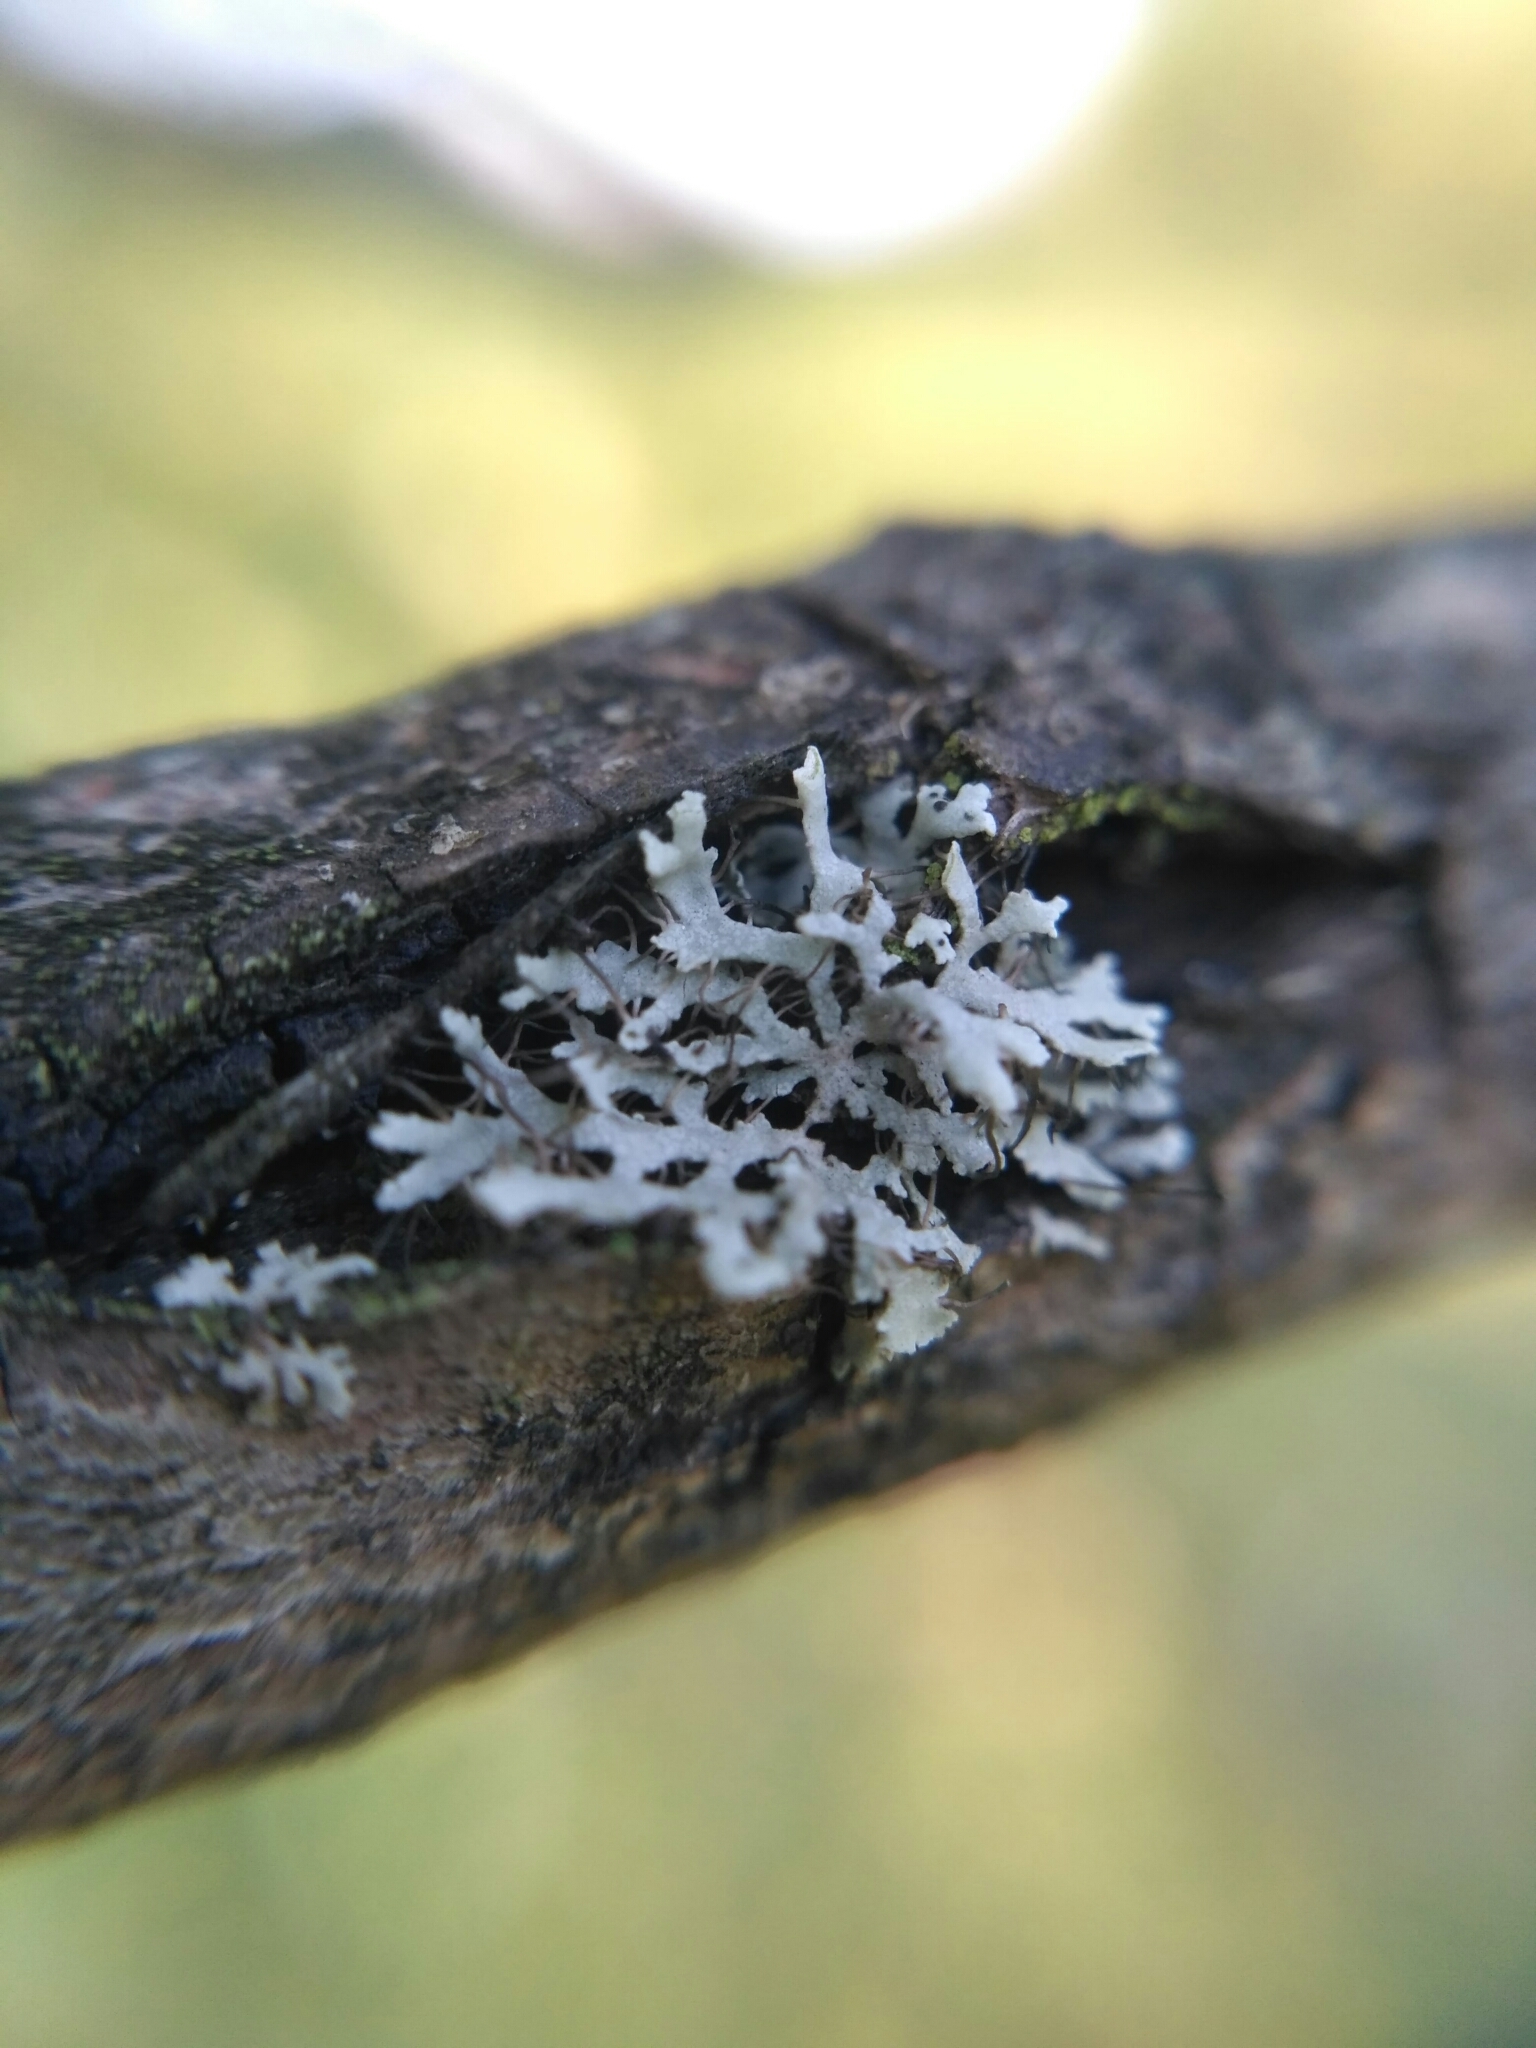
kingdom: Fungi
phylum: Ascomycota
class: Lecanoromycetes
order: Caliciales
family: Physciaceae
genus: Physcia
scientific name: Physcia tenella
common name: Fringed rosette lichen
